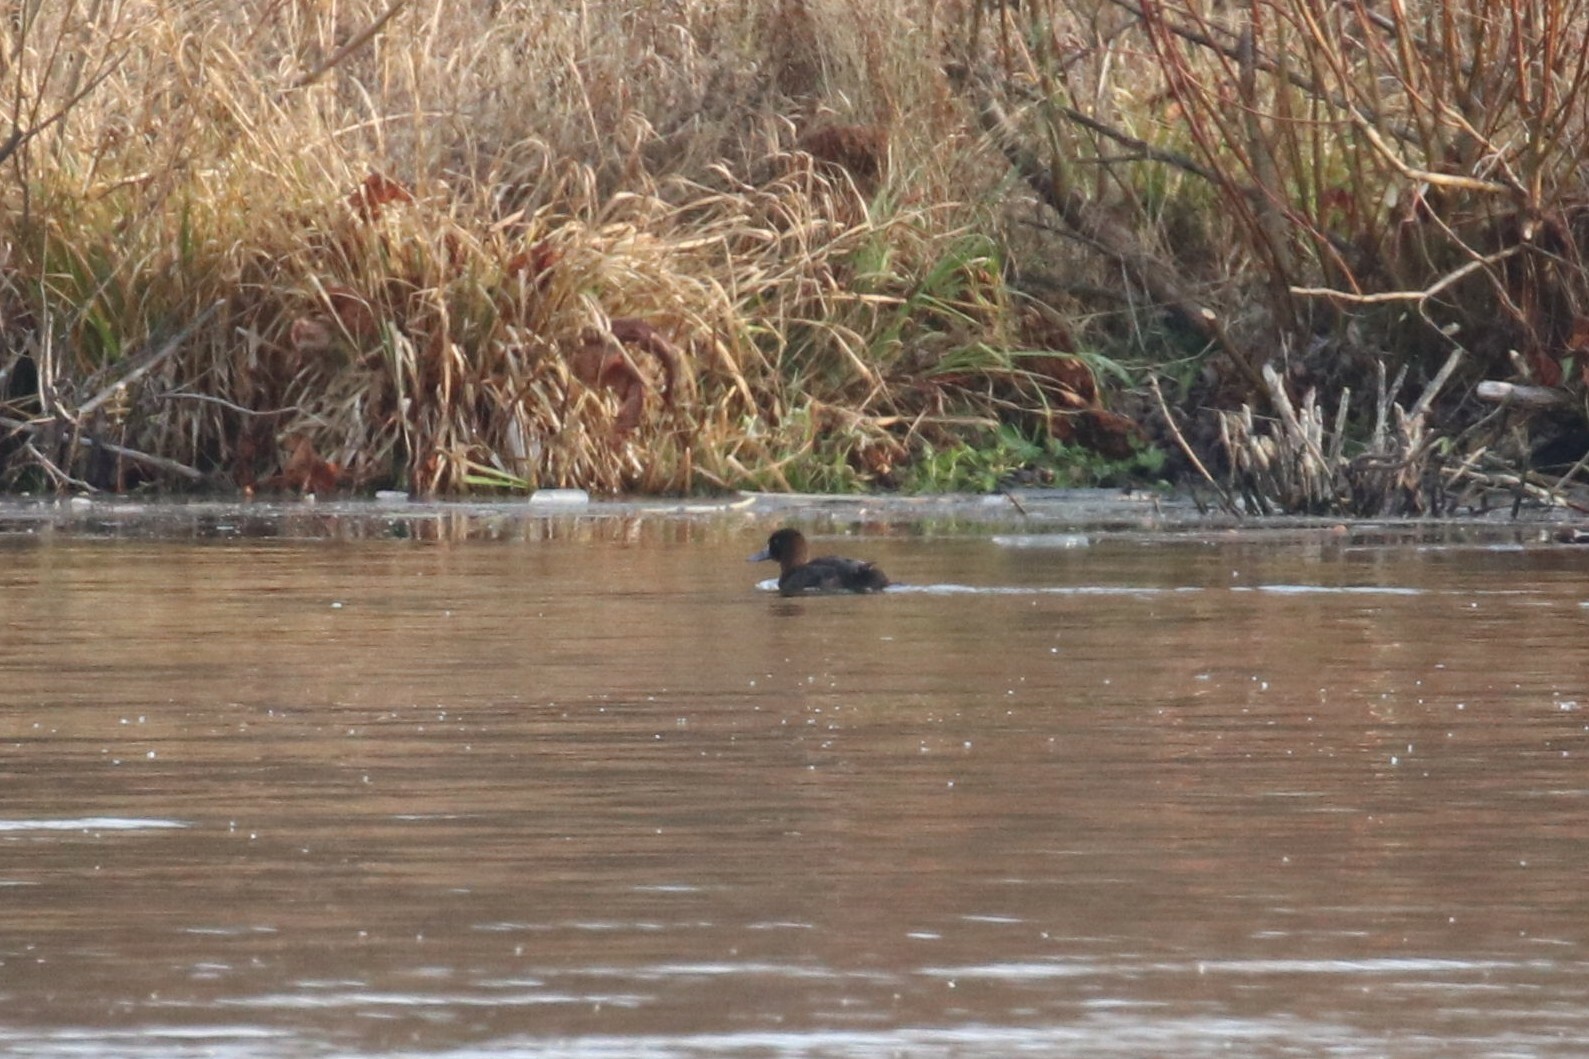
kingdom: Animalia
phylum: Chordata
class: Aves
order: Anseriformes
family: Anatidae
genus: Aythya
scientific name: Aythya fuligula
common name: Tufted duck
